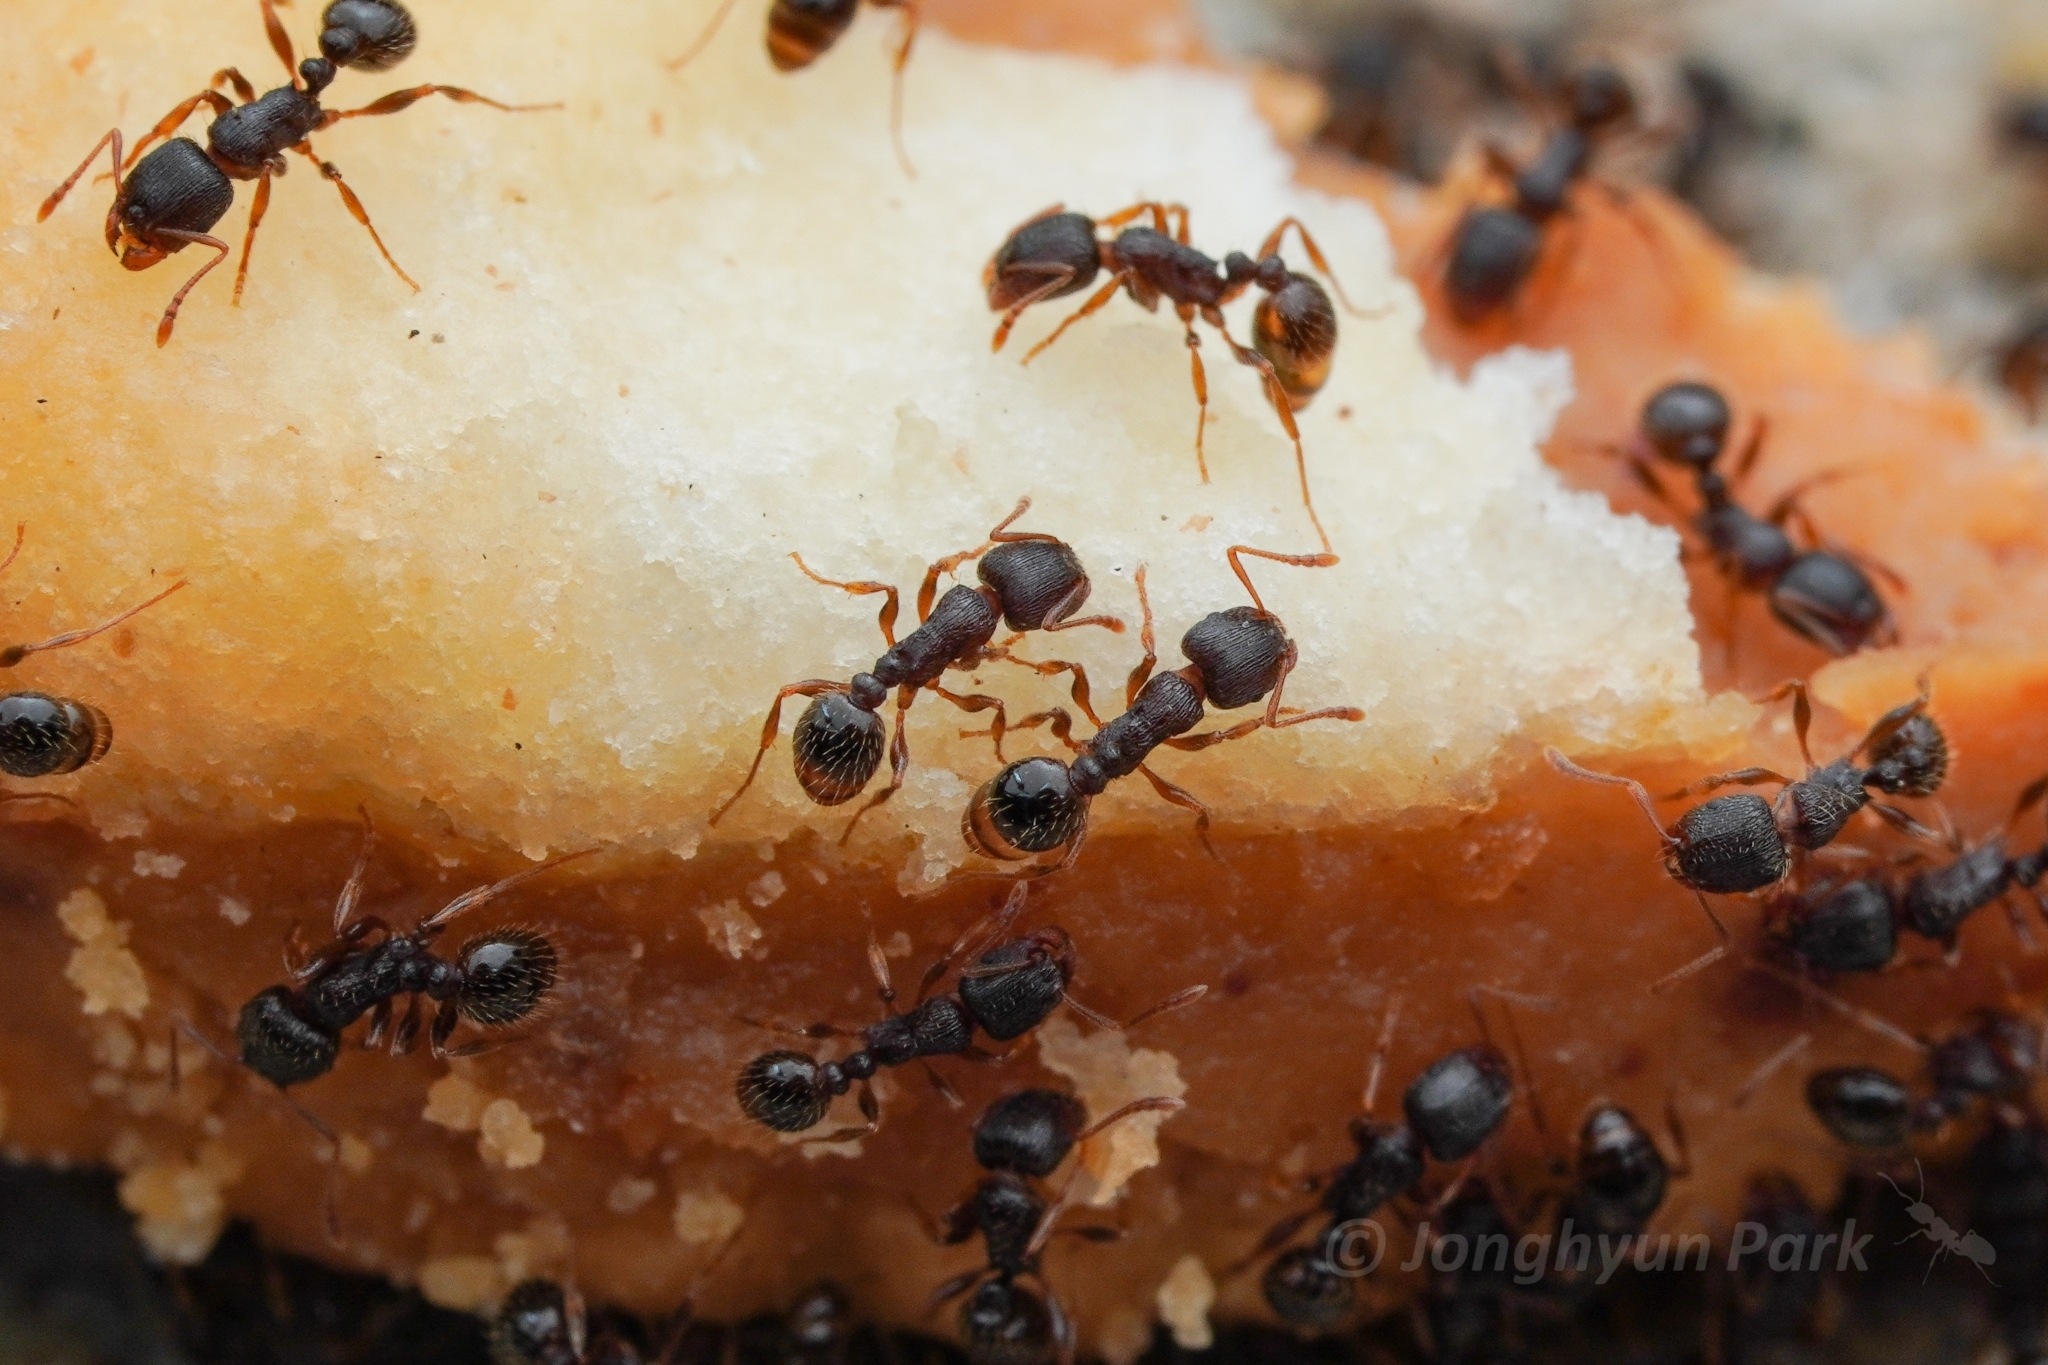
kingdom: Animalia
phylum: Arthropoda
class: Insecta
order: Hymenoptera
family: Formicidae
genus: Tetramorium
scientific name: Tetramorium immigrans
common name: Pavement ant
